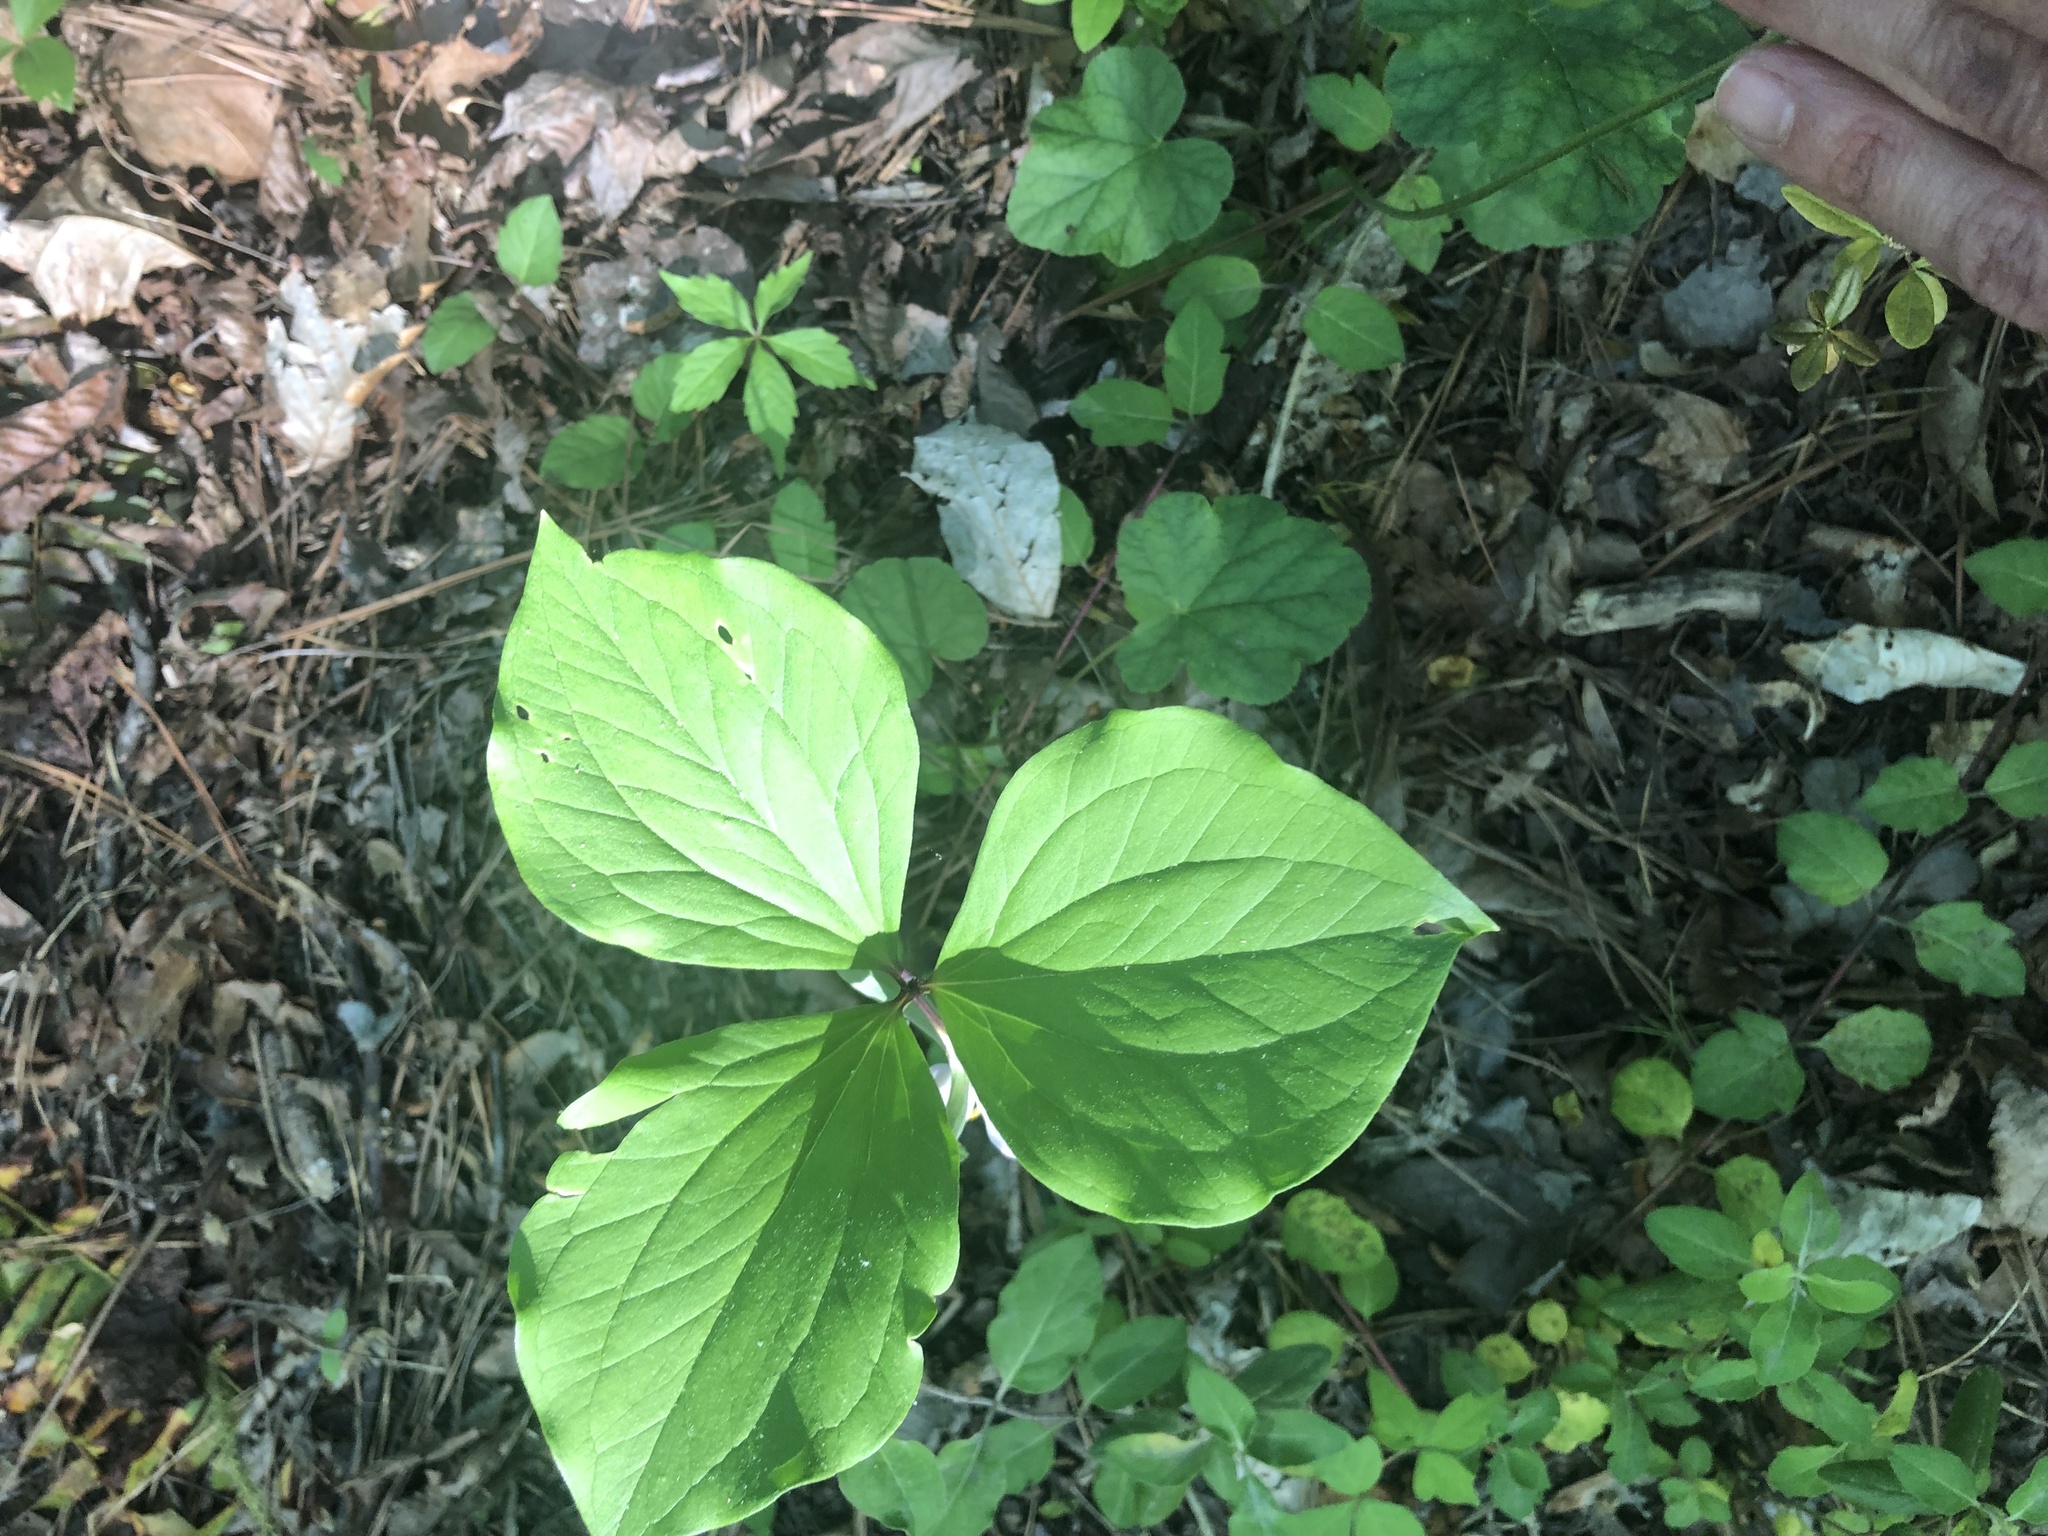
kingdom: Plantae
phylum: Tracheophyta
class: Liliopsida
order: Liliales
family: Melanthiaceae
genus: Trillium
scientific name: Trillium catesbaei
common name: Bashful trillium
